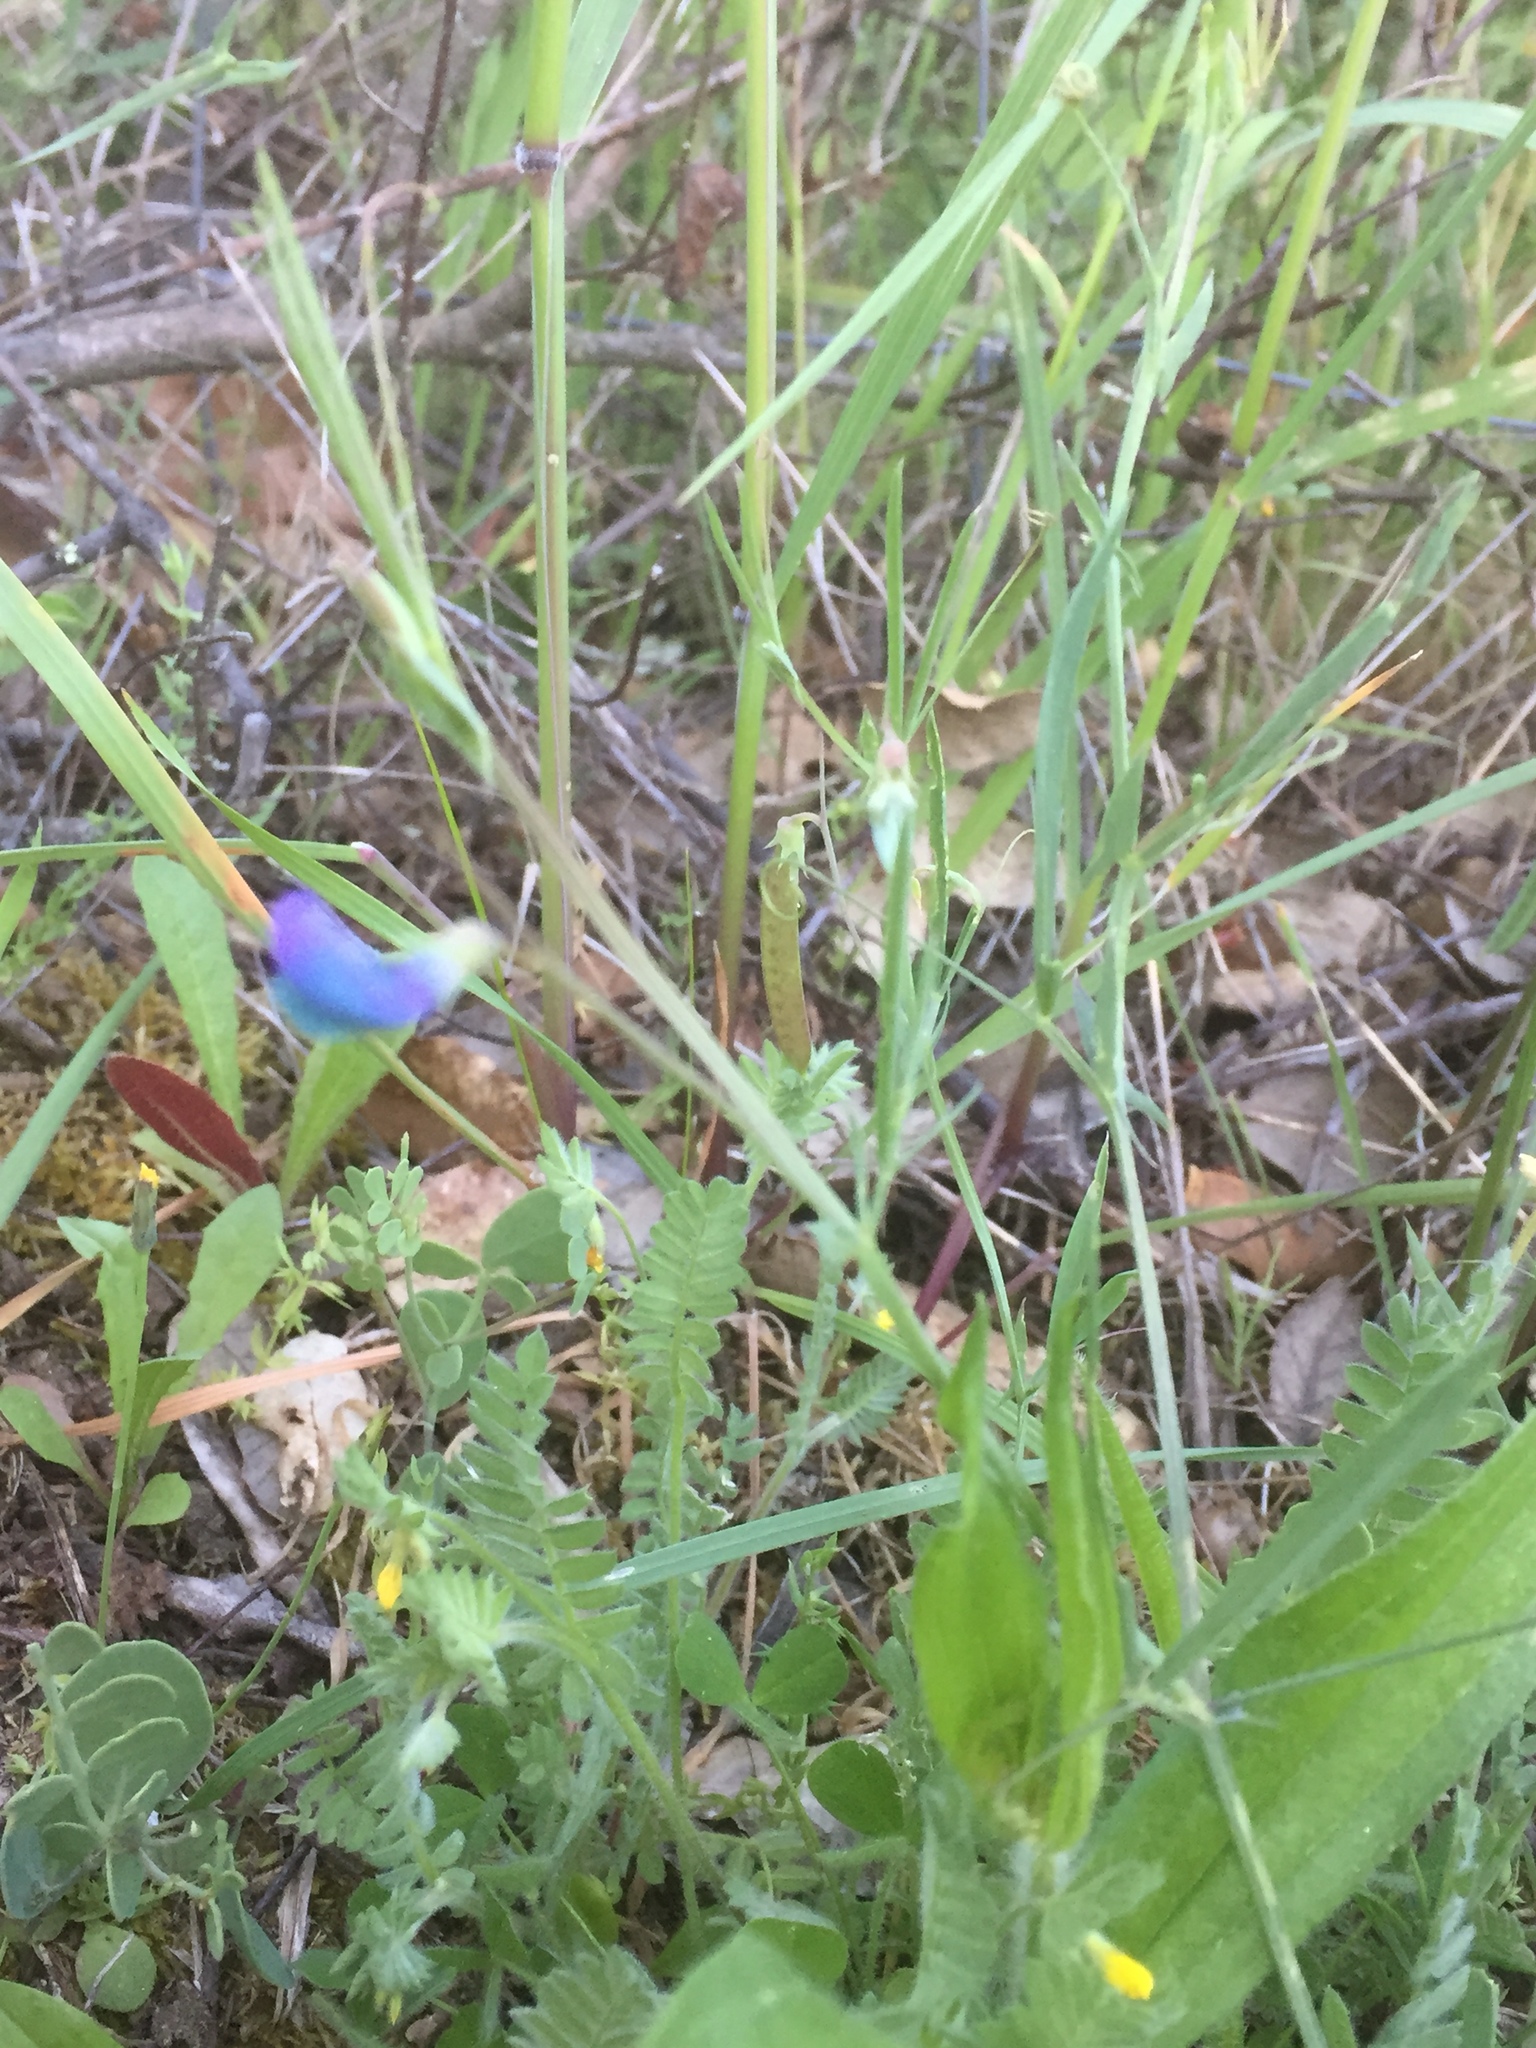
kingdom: Plantae
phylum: Tracheophyta
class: Magnoliopsida
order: Fabales
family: Fabaceae
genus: Lathyrus
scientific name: Lathyrus angulatus
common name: Angular pea
